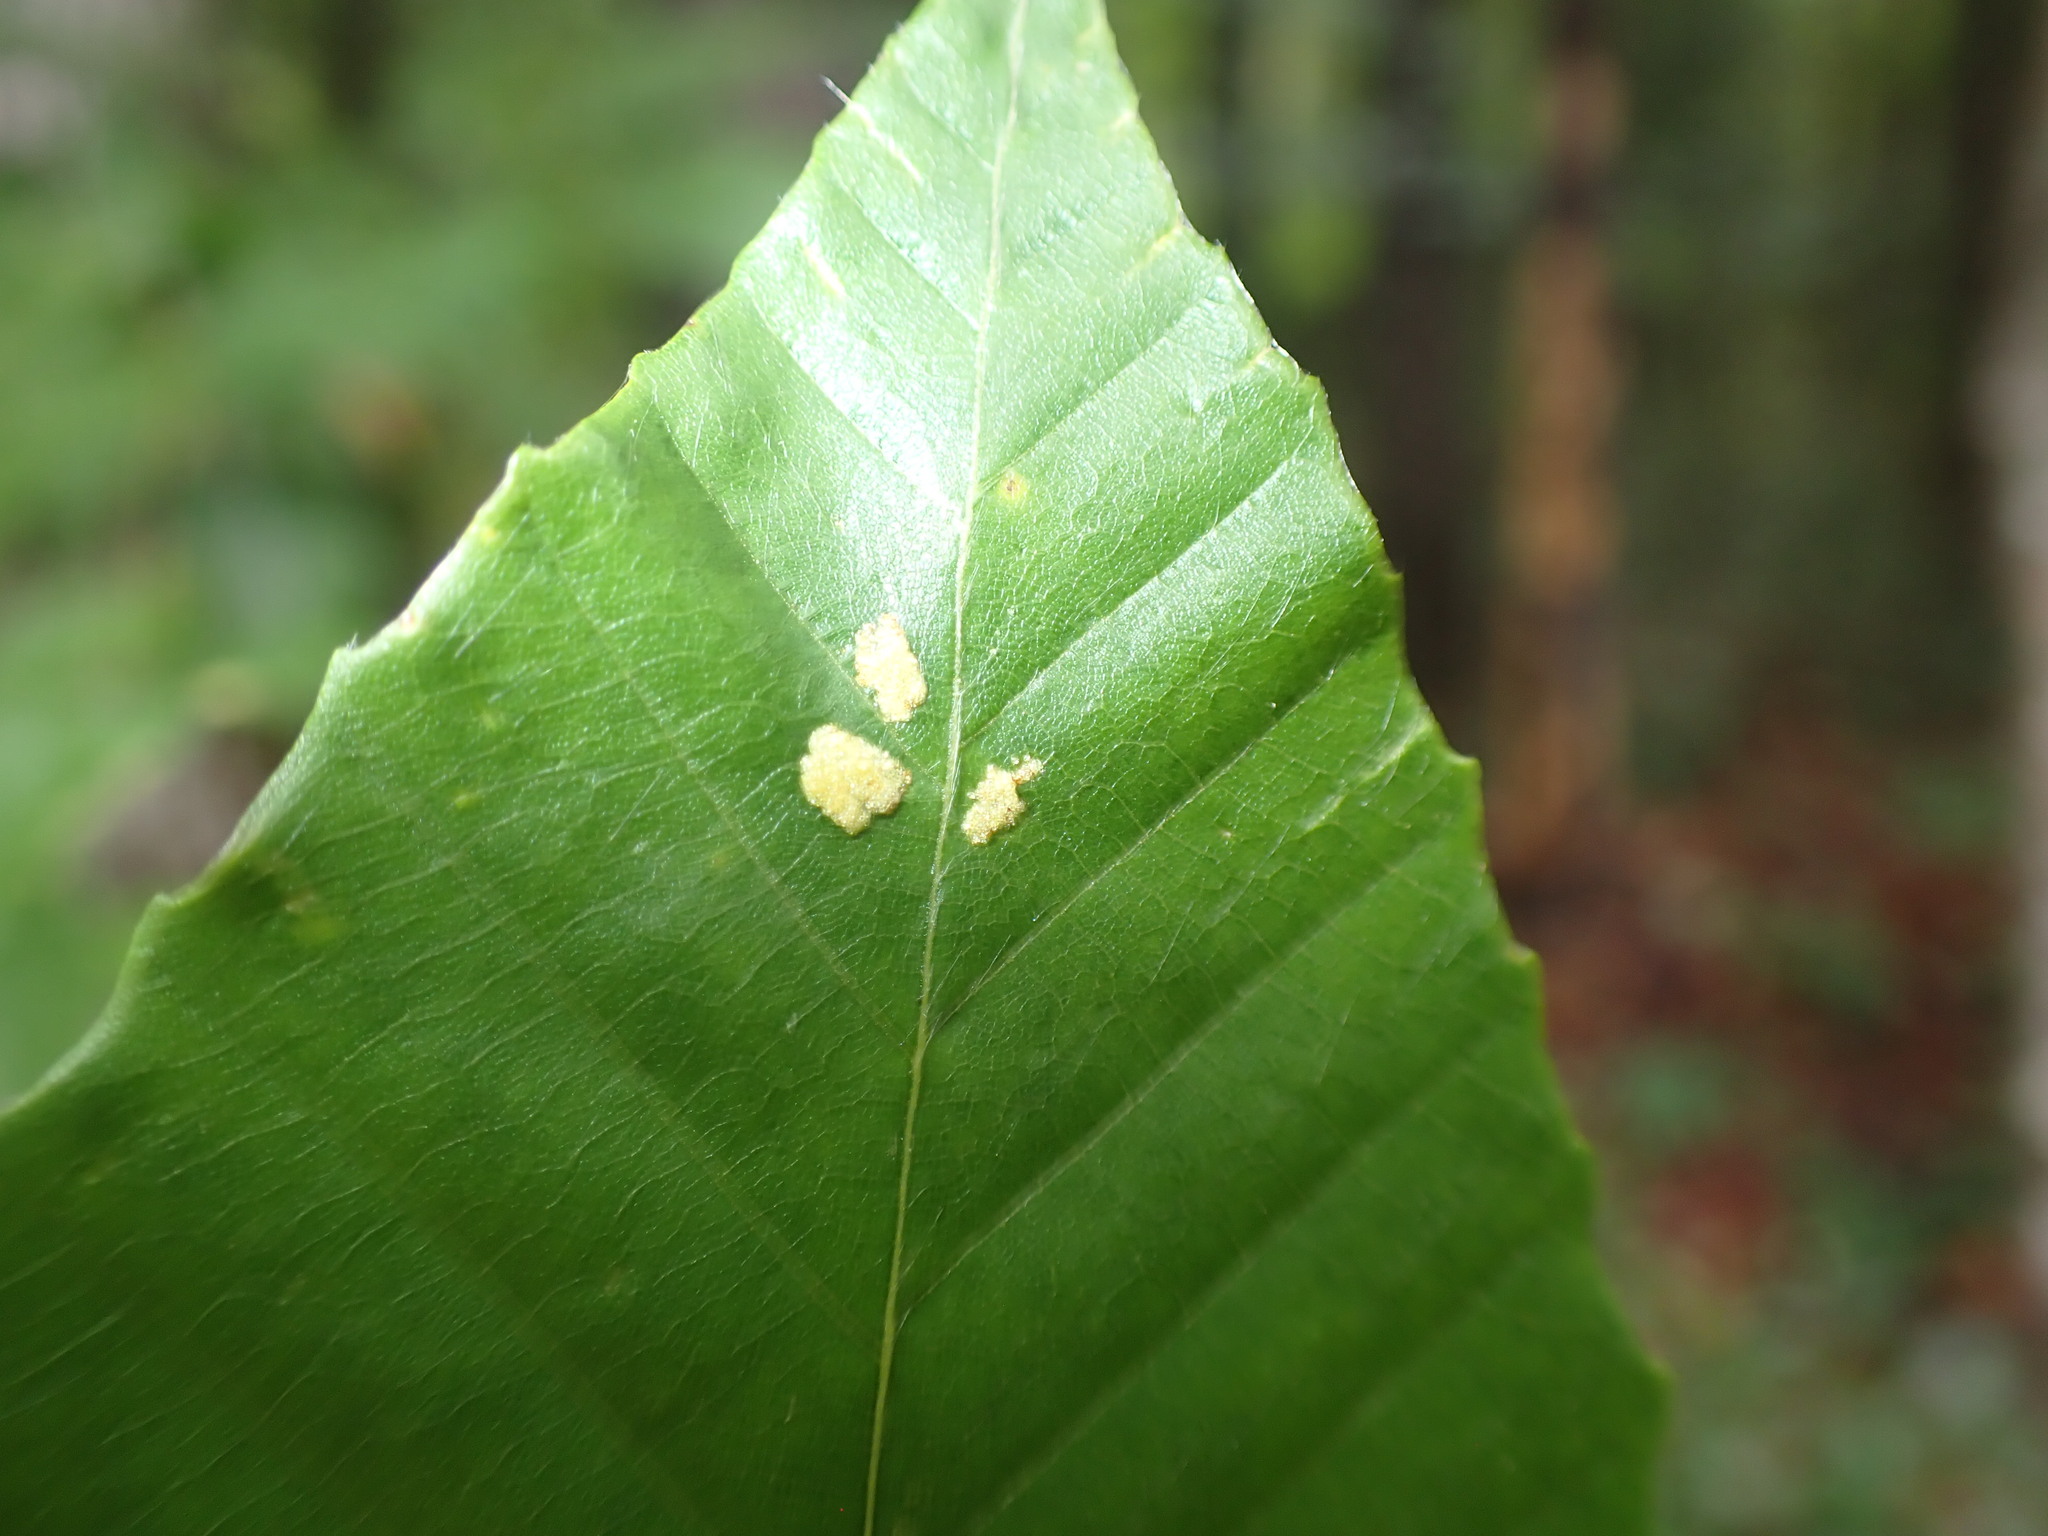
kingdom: Animalia
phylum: Arthropoda
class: Arachnida
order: Trombidiformes
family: Eriophyidae
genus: Acalitus
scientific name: Acalitus
